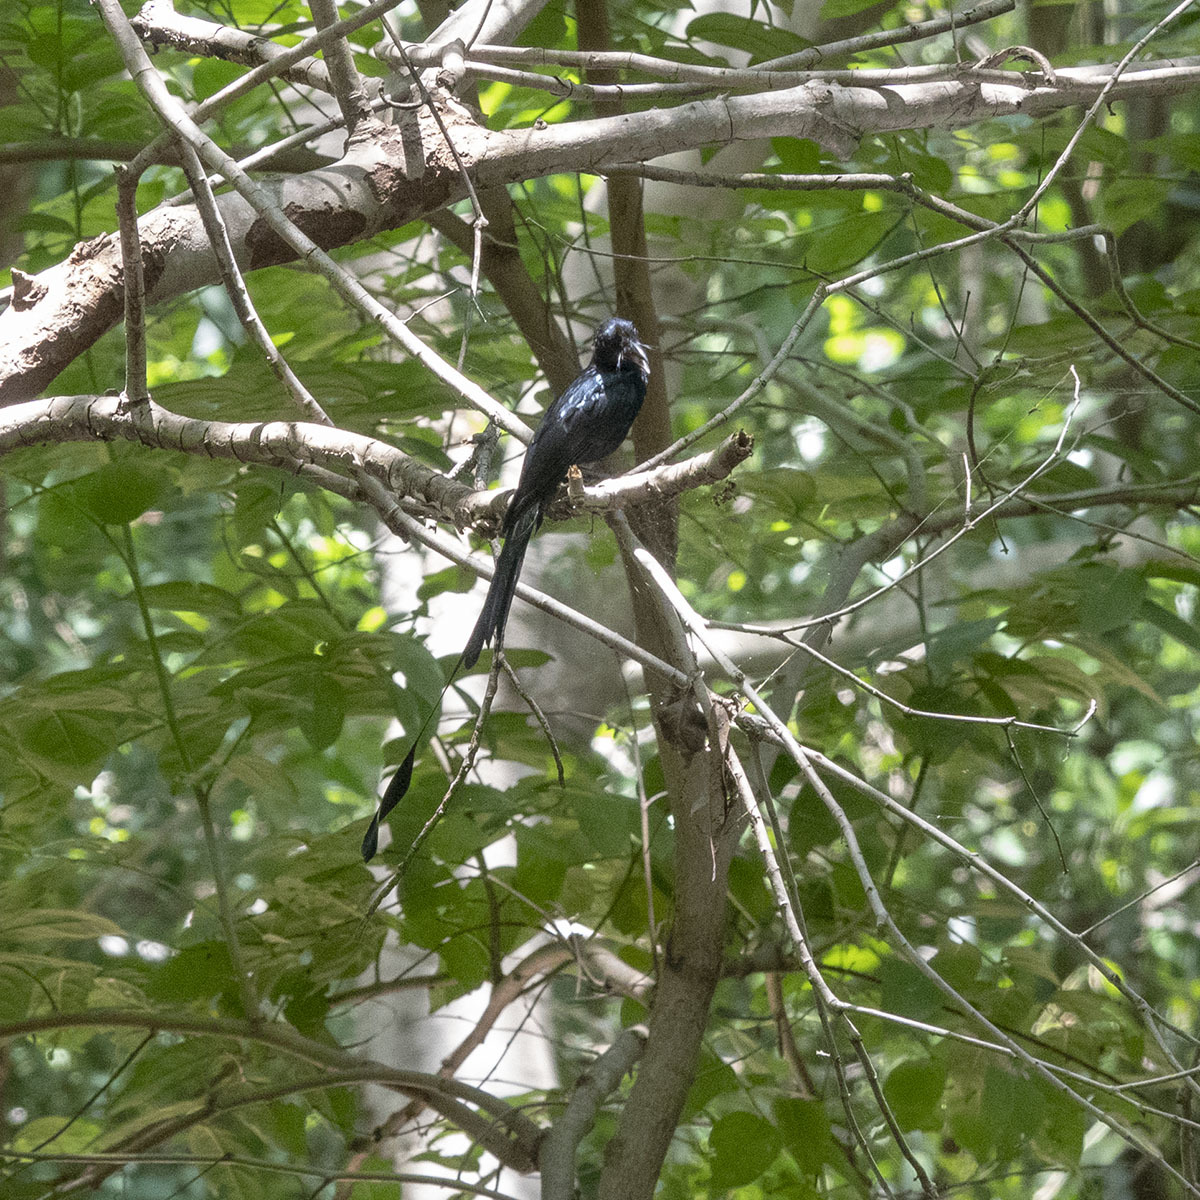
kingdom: Animalia
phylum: Chordata
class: Aves
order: Passeriformes
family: Dicruridae
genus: Dicrurus
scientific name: Dicrurus paradiseus
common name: Greater racket-tailed drongo
